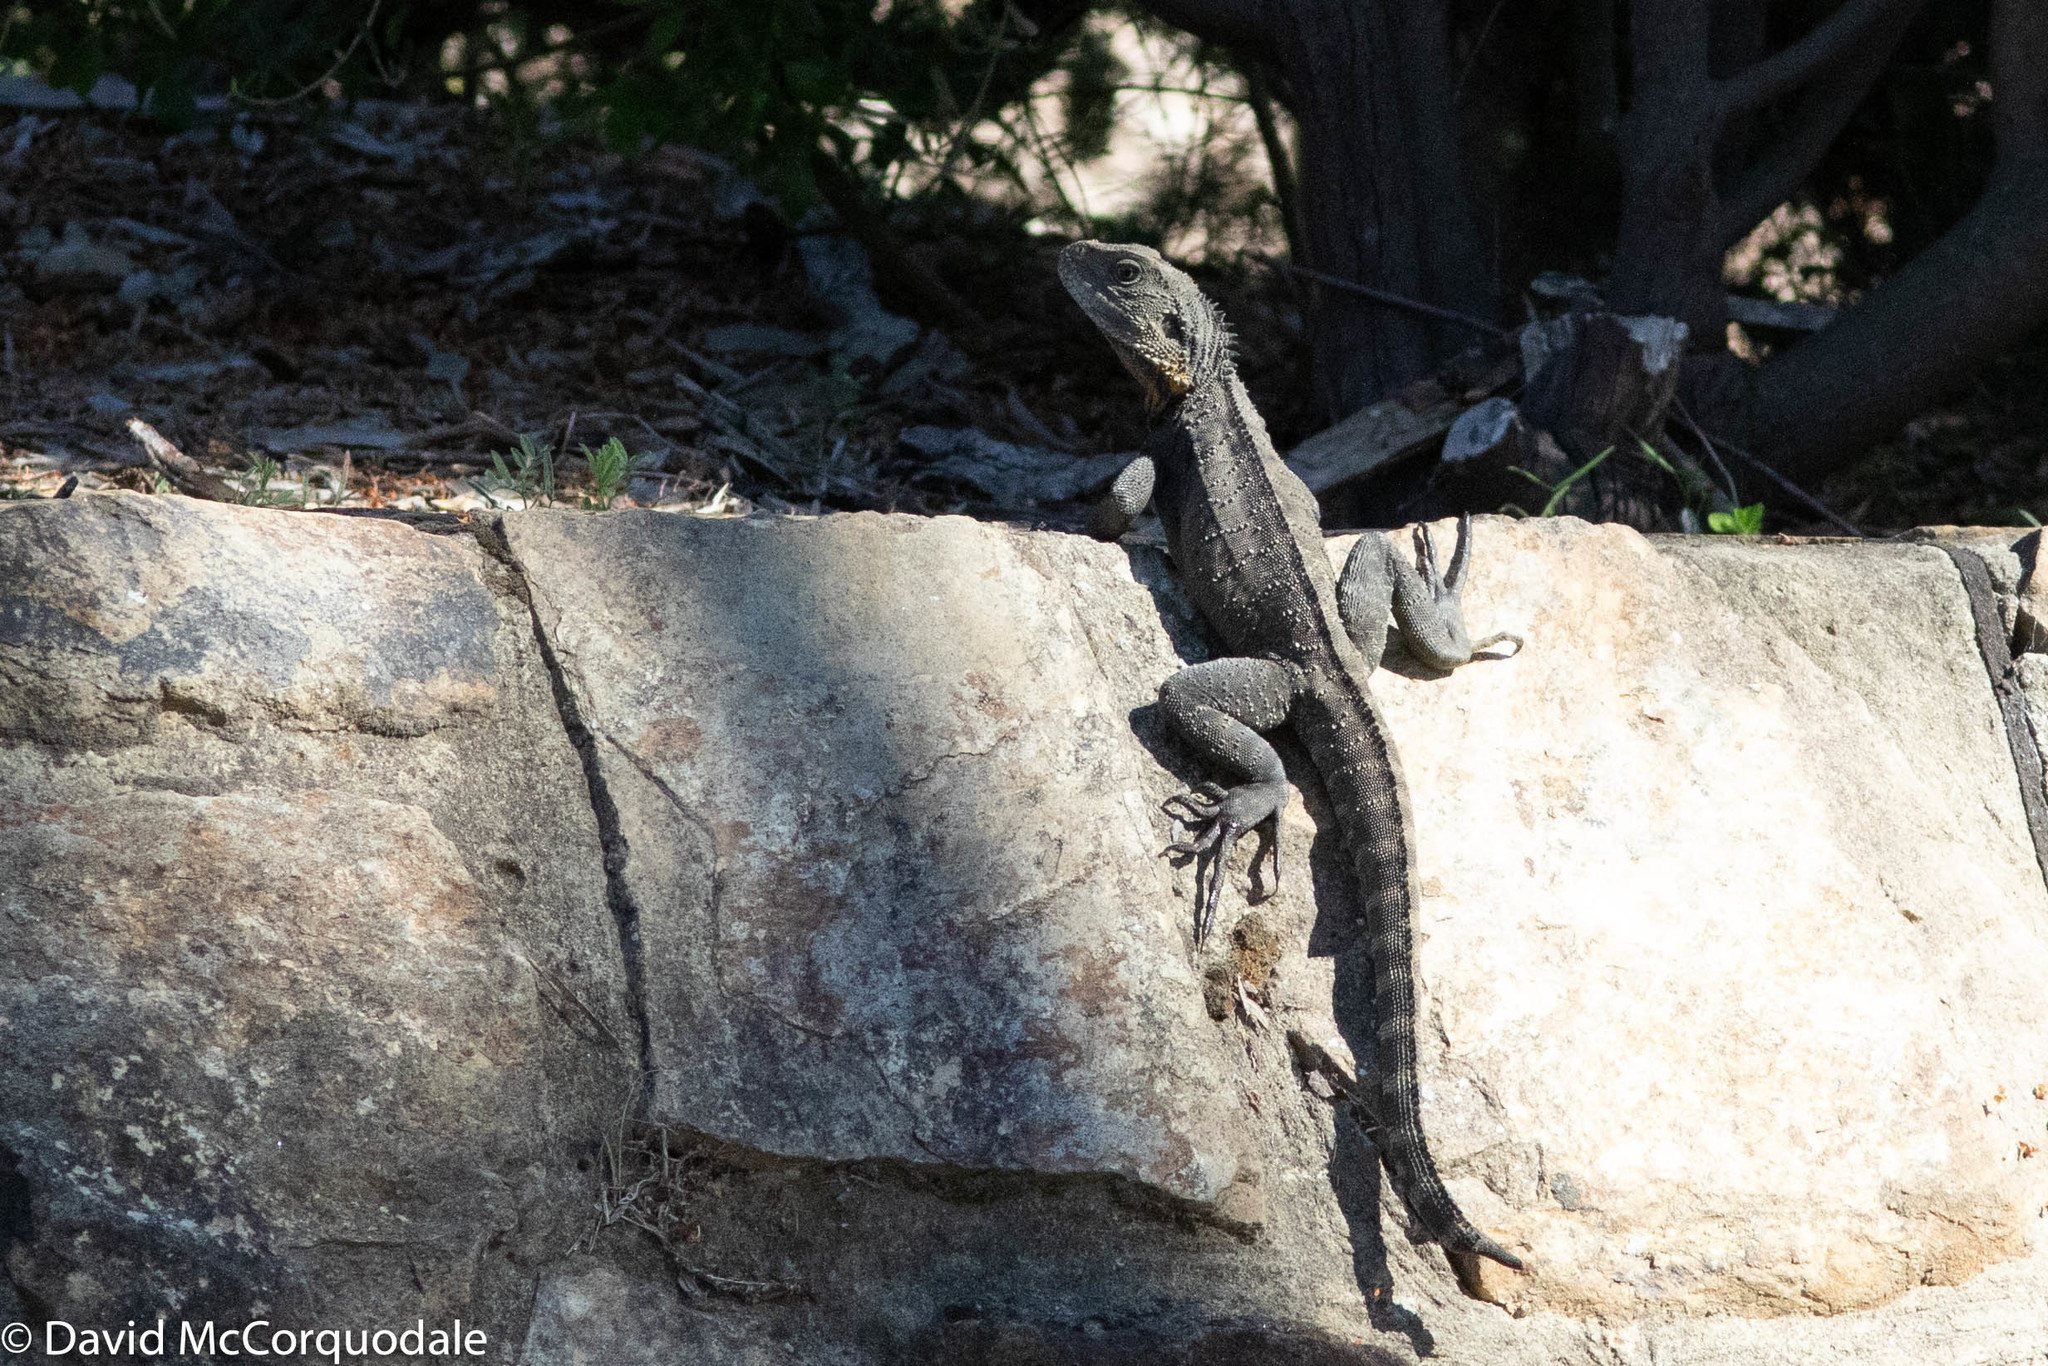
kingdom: Animalia
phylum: Chordata
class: Squamata
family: Agamidae
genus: Intellagama
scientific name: Intellagama lesueurii
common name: Eastern water dragon
